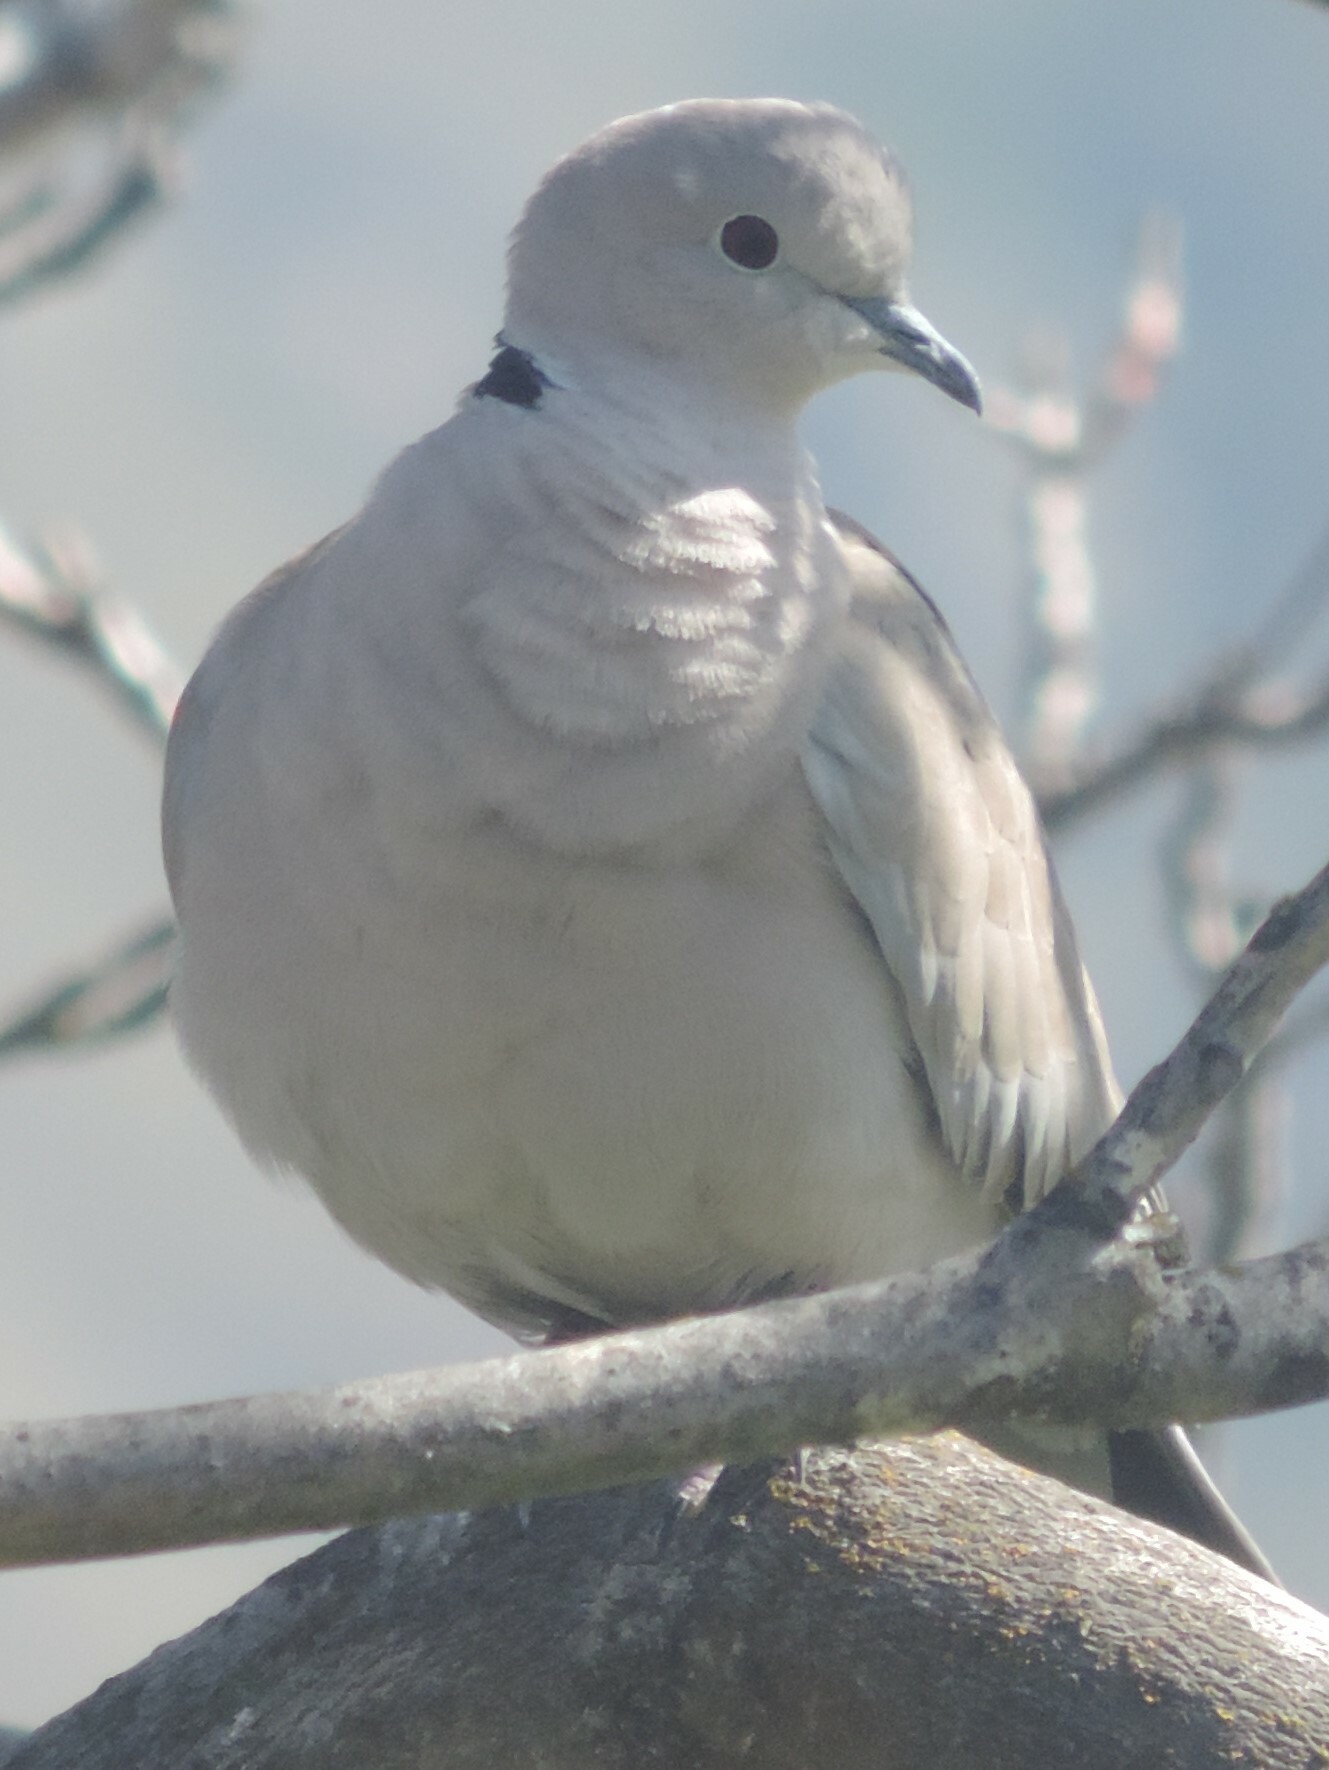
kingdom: Animalia
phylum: Chordata
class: Aves
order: Columbiformes
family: Columbidae
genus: Streptopelia
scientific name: Streptopelia decaocto
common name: Eurasian collared dove
